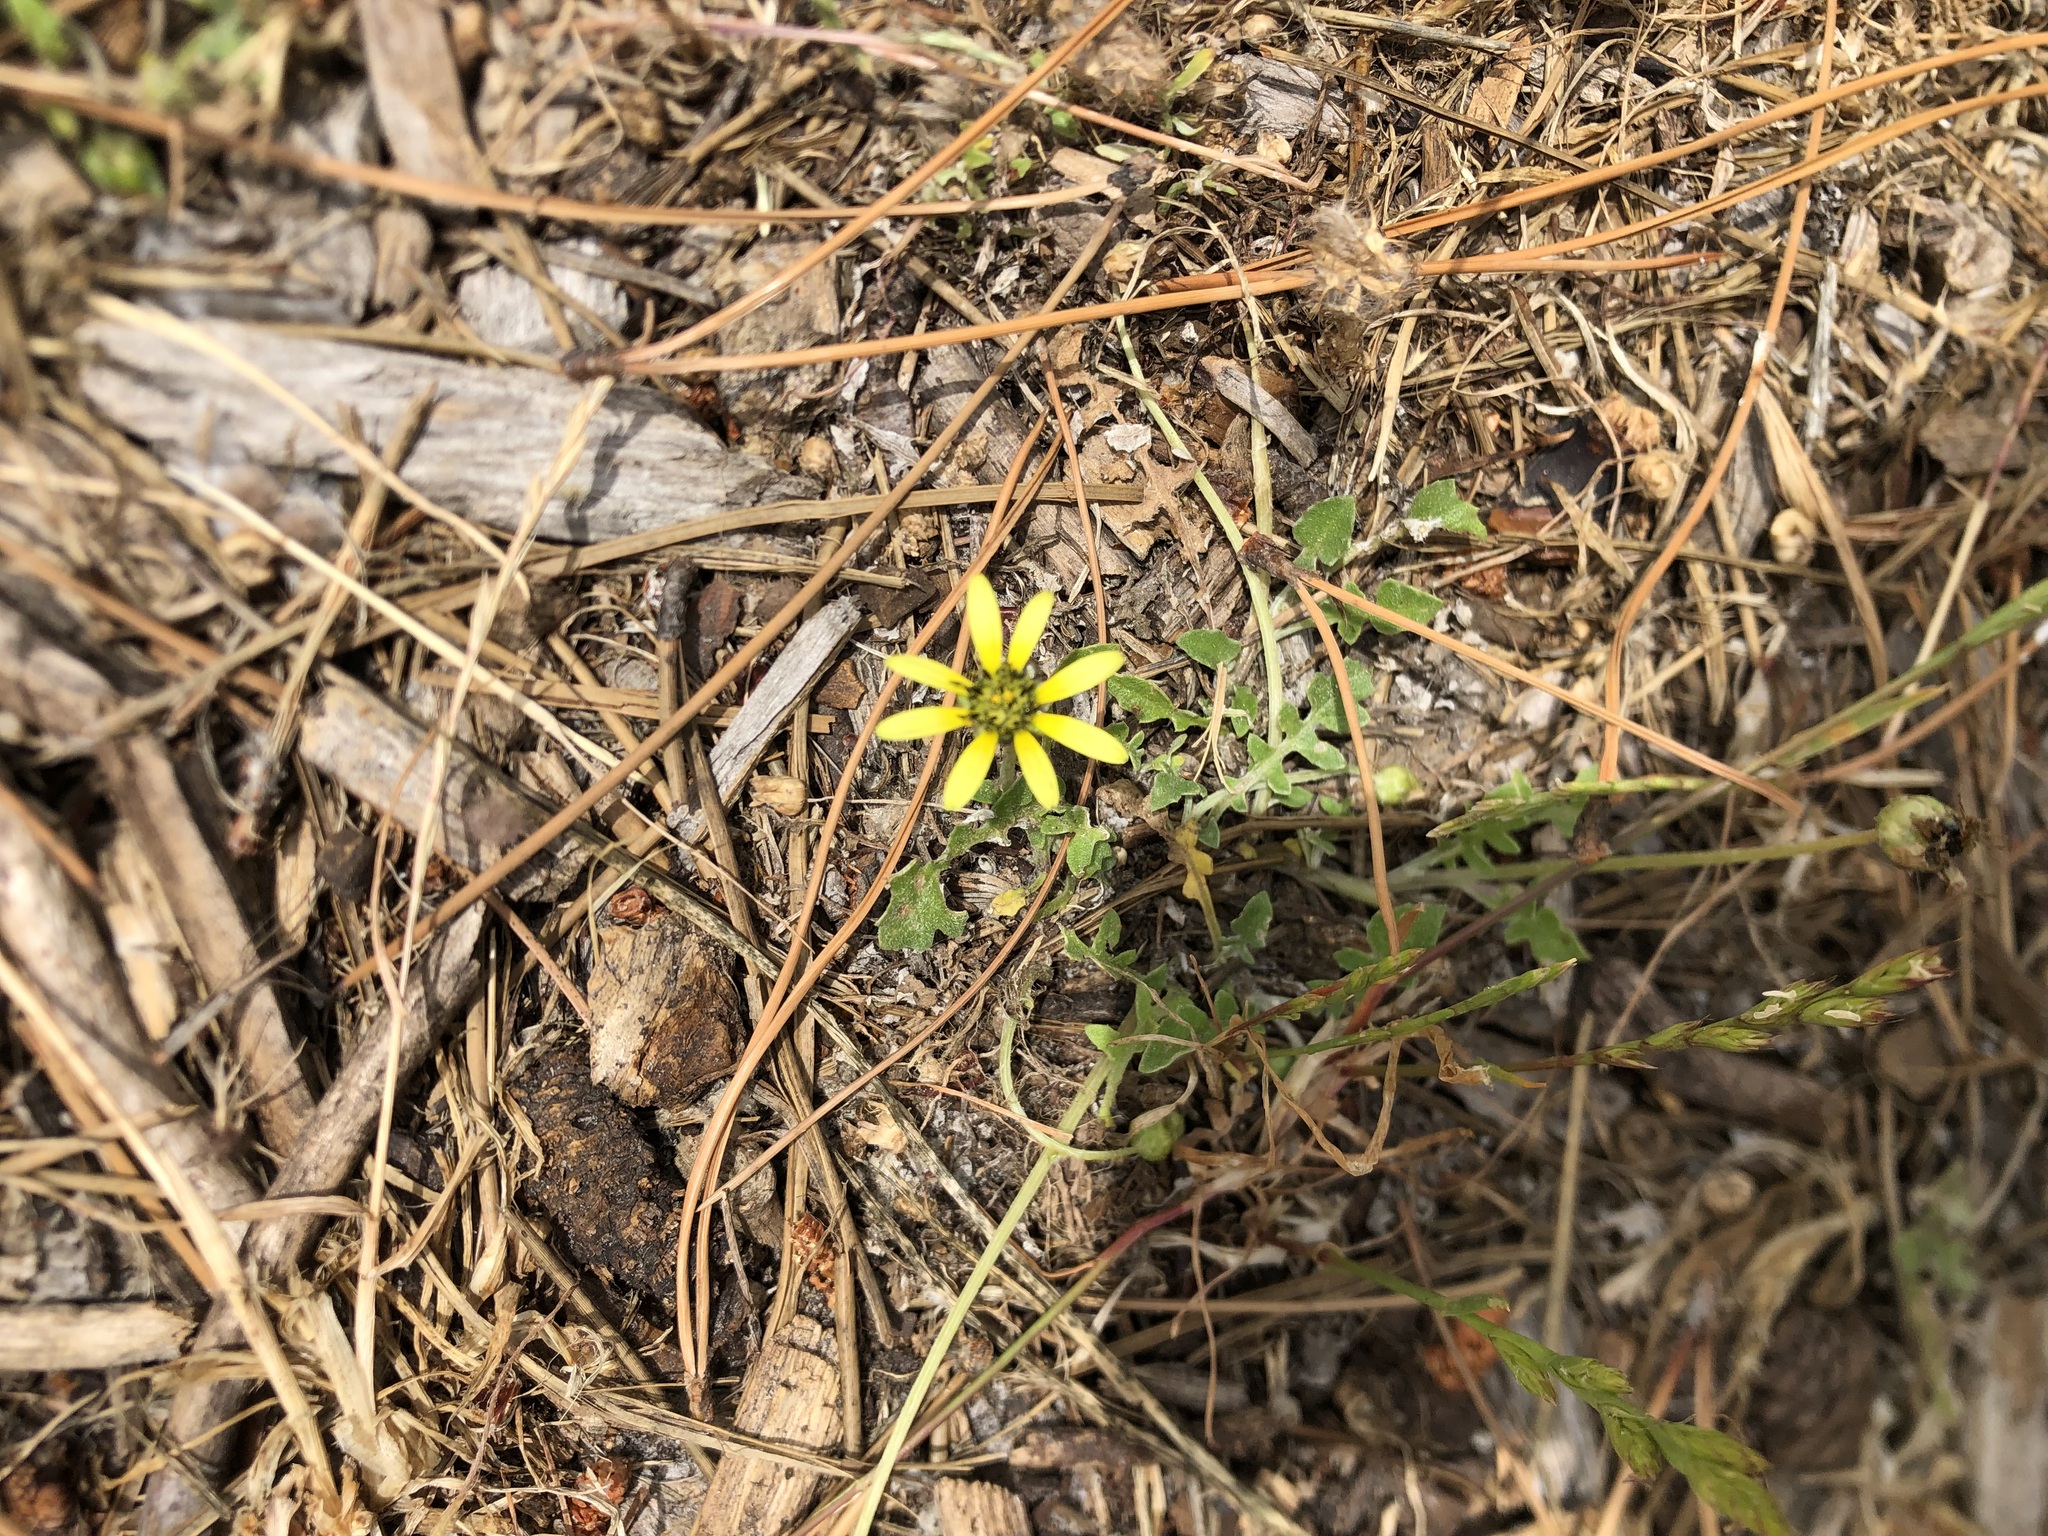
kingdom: Plantae
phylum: Tracheophyta
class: Magnoliopsida
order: Asterales
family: Asteraceae
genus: Arctotheca
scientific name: Arctotheca calendula
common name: Capeweed
